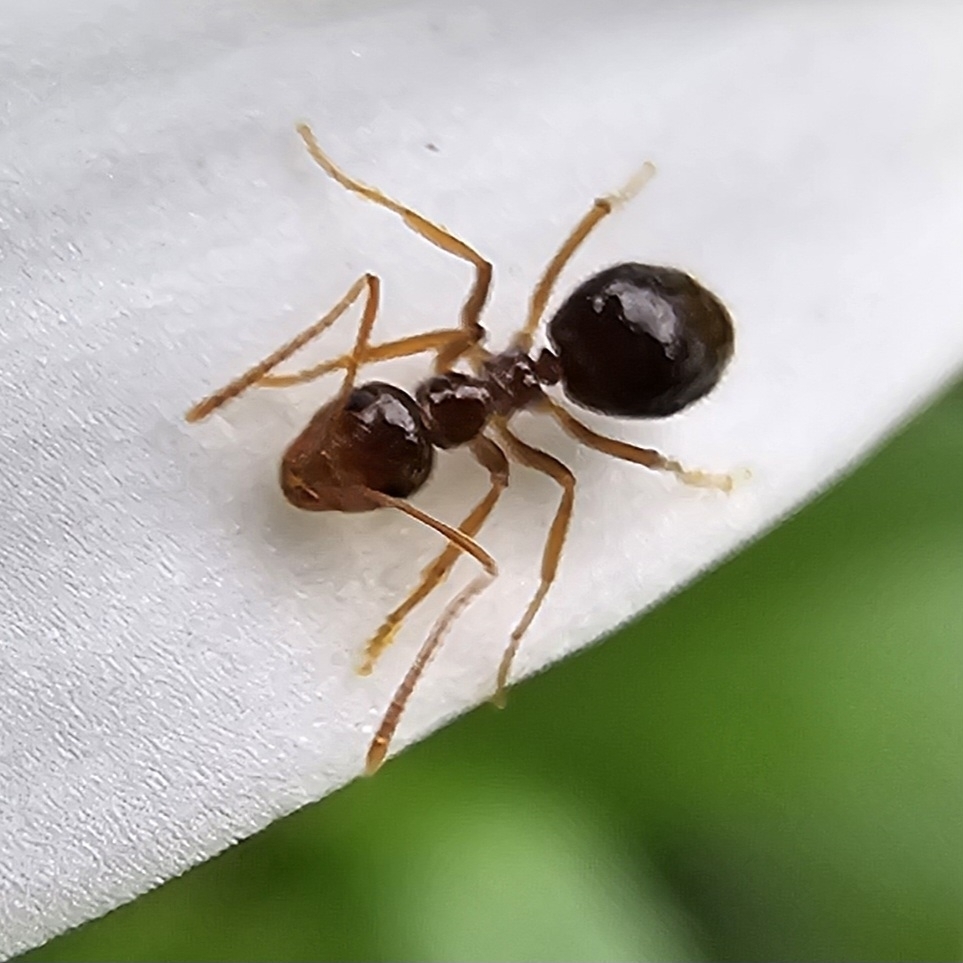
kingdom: Animalia
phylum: Arthropoda
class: Insecta
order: Hymenoptera
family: Formicidae
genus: Prenolepis
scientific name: Prenolepis imparis
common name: Small honey ant
